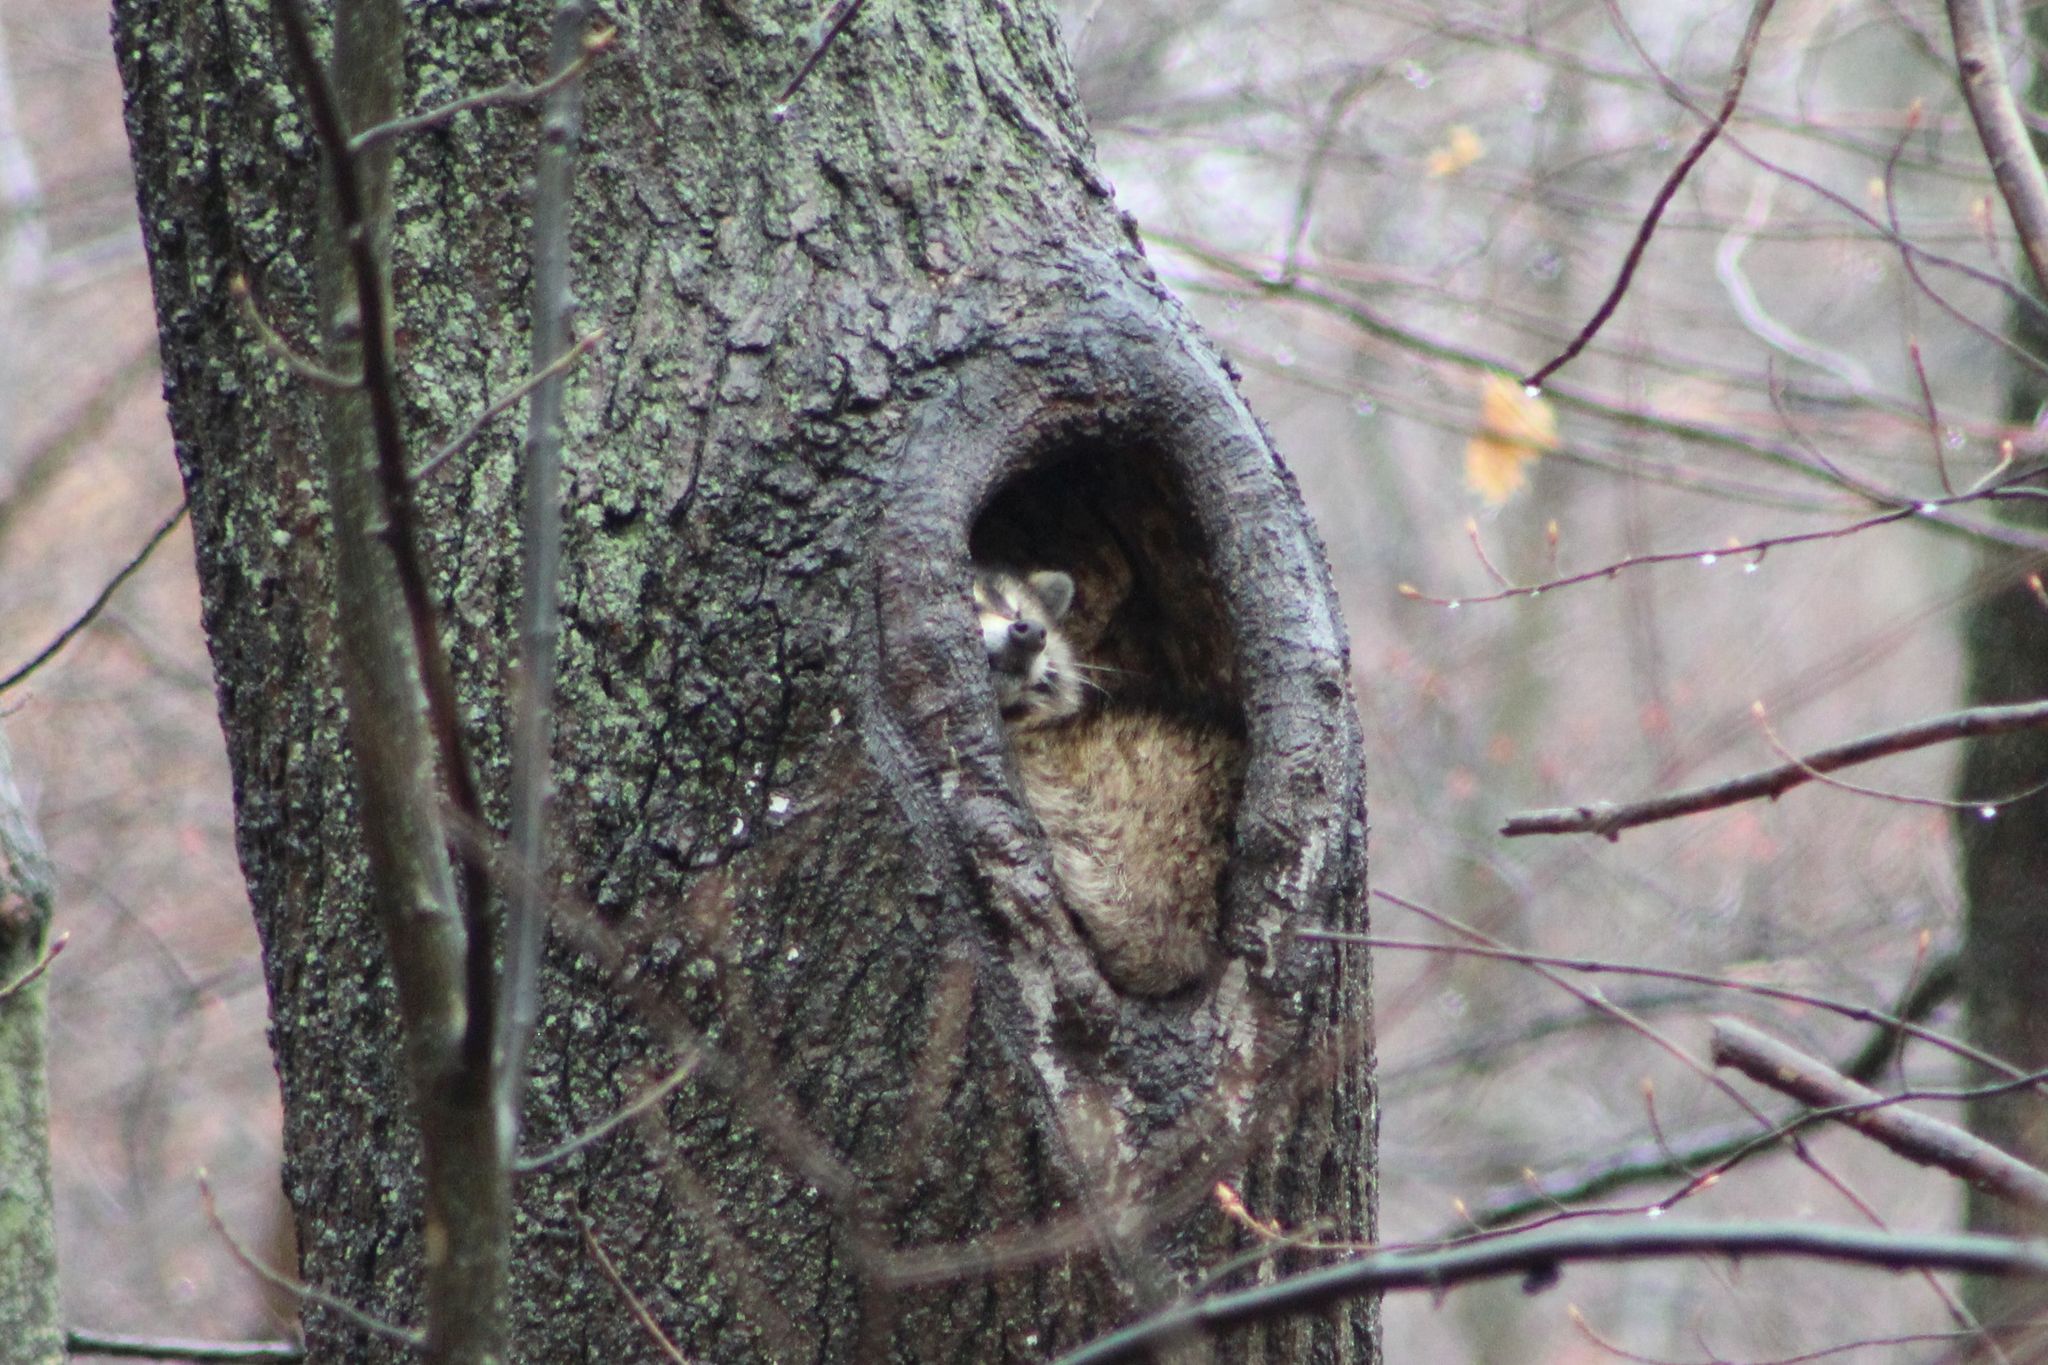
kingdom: Animalia
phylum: Chordata
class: Mammalia
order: Carnivora
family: Procyonidae
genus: Procyon
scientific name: Procyon lotor
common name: Raccoon
